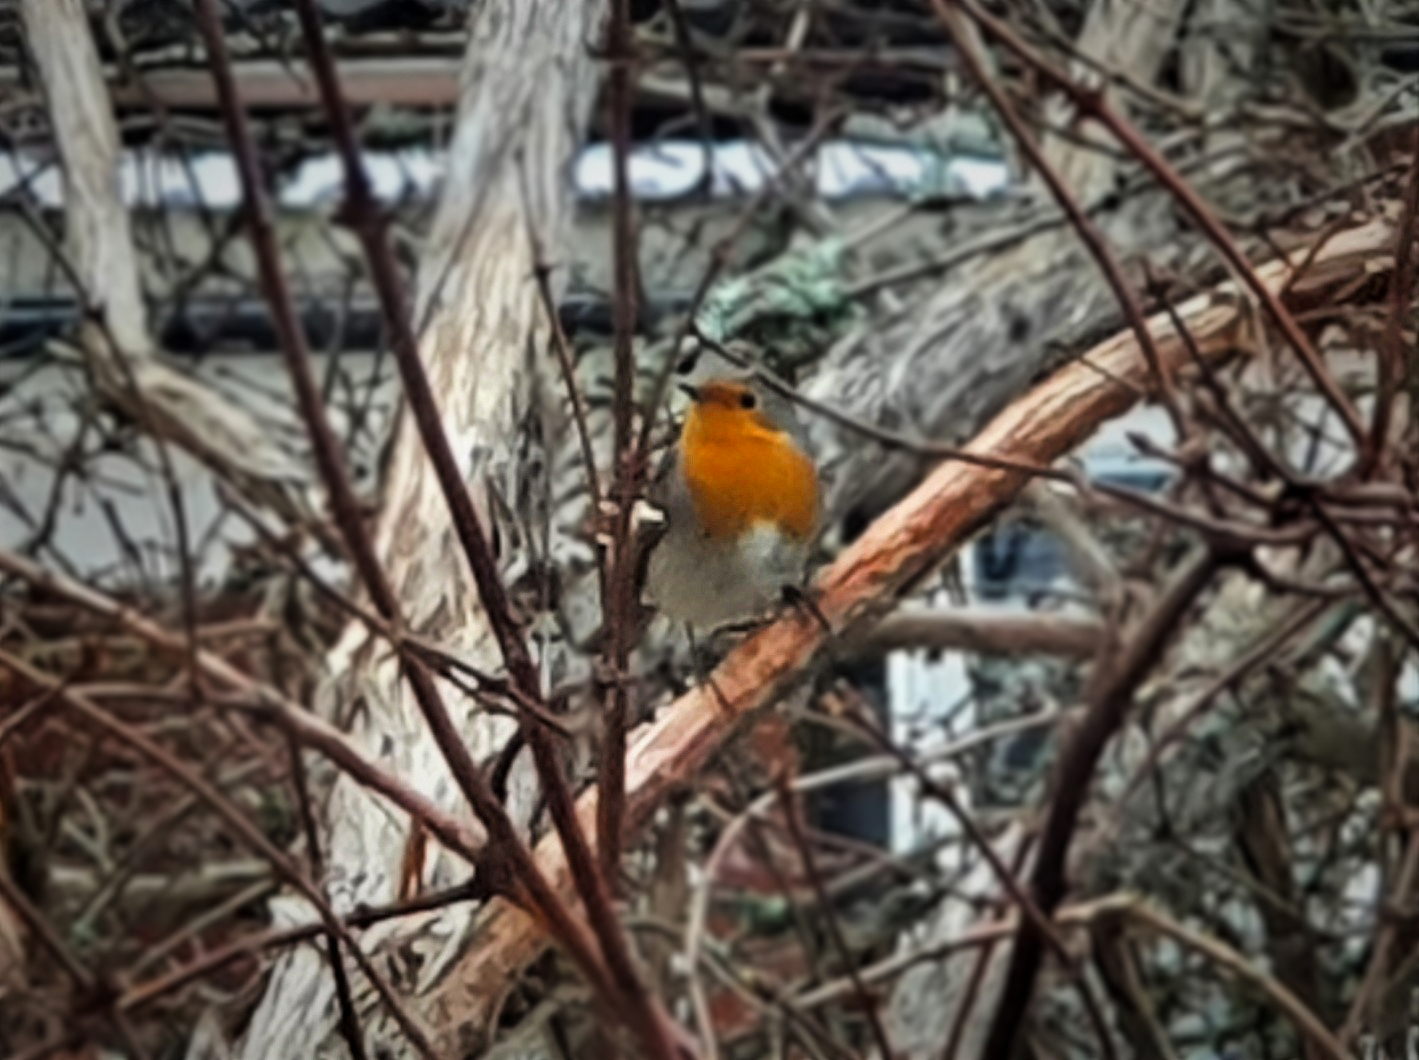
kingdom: Animalia
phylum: Chordata
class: Aves
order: Passeriformes
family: Muscicapidae
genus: Erithacus
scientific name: Erithacus rubecula
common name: European robin
